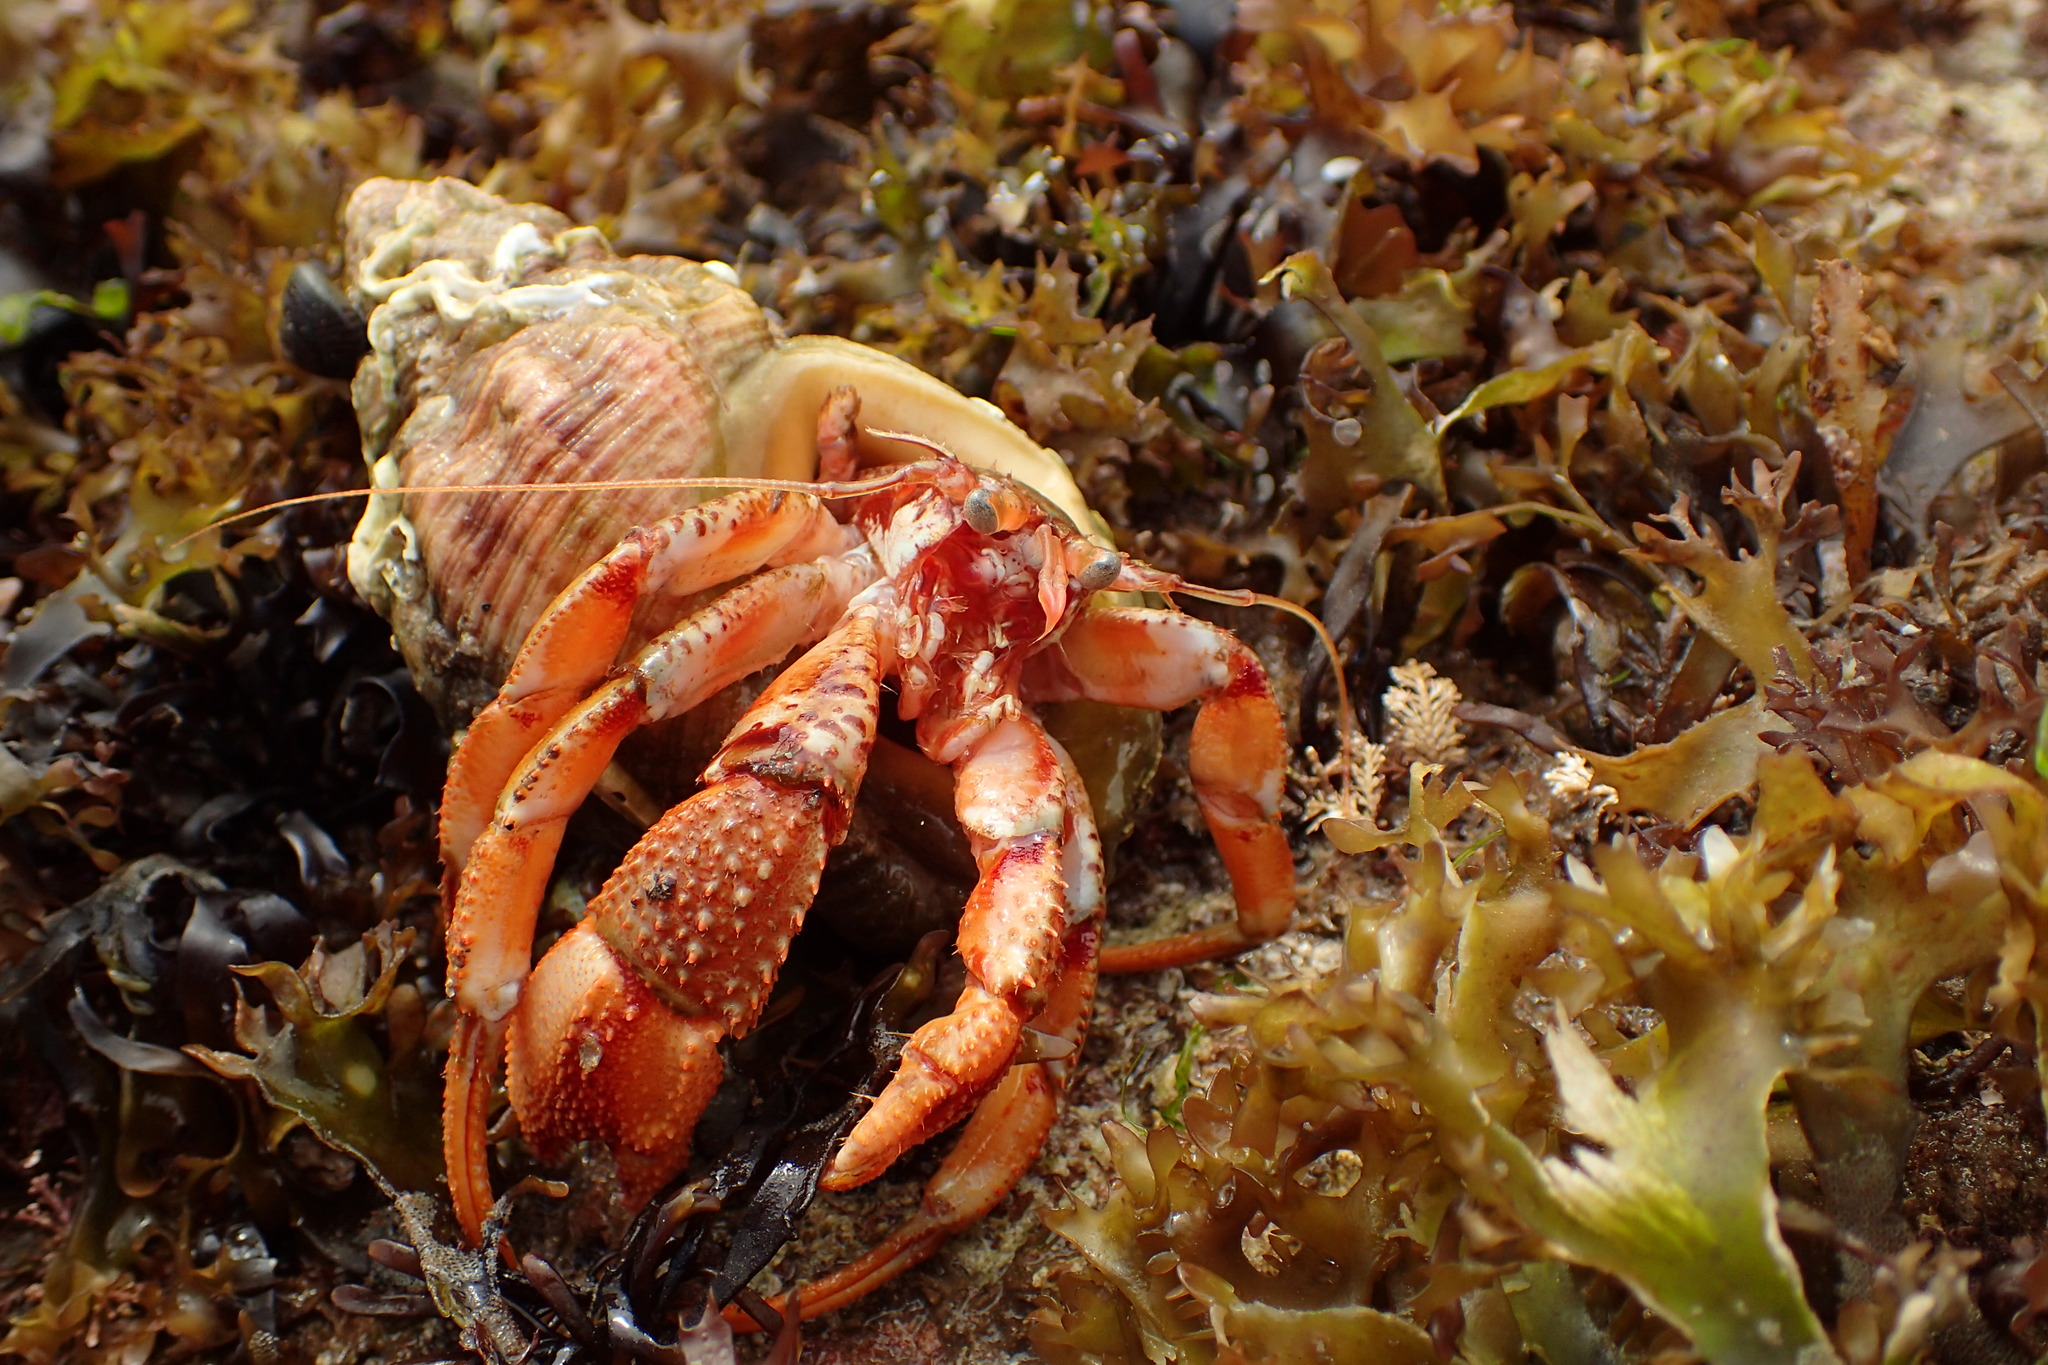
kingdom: Animalia
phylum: Arthropoda
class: Malacostraca
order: Decapoda
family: Paguridae
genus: Pagurus
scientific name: Pagurus bernhardus
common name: Hermit crab
